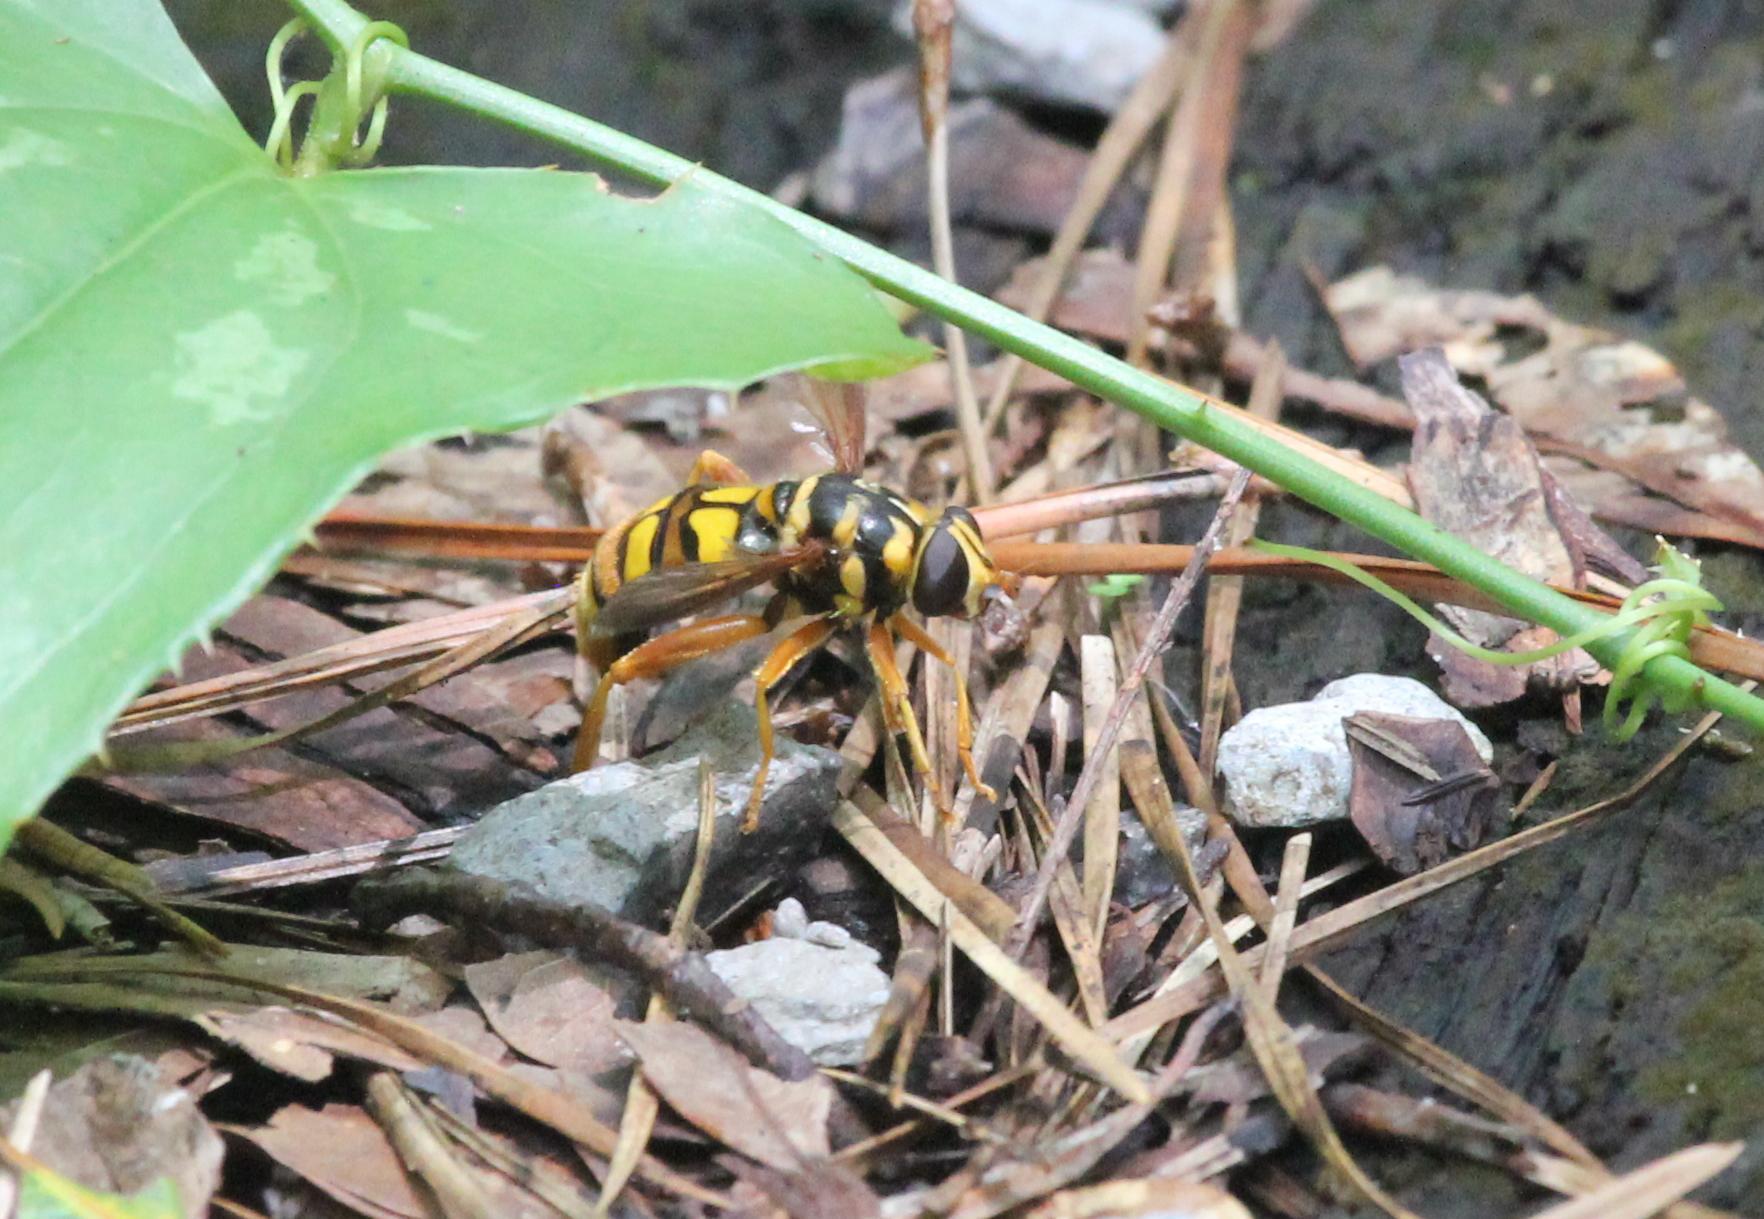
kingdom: Animalia
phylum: Arthropoda
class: Insecta
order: Diptera
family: Syrphidae
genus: Milesia
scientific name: Milesia virginiensis
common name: Virginia giant
